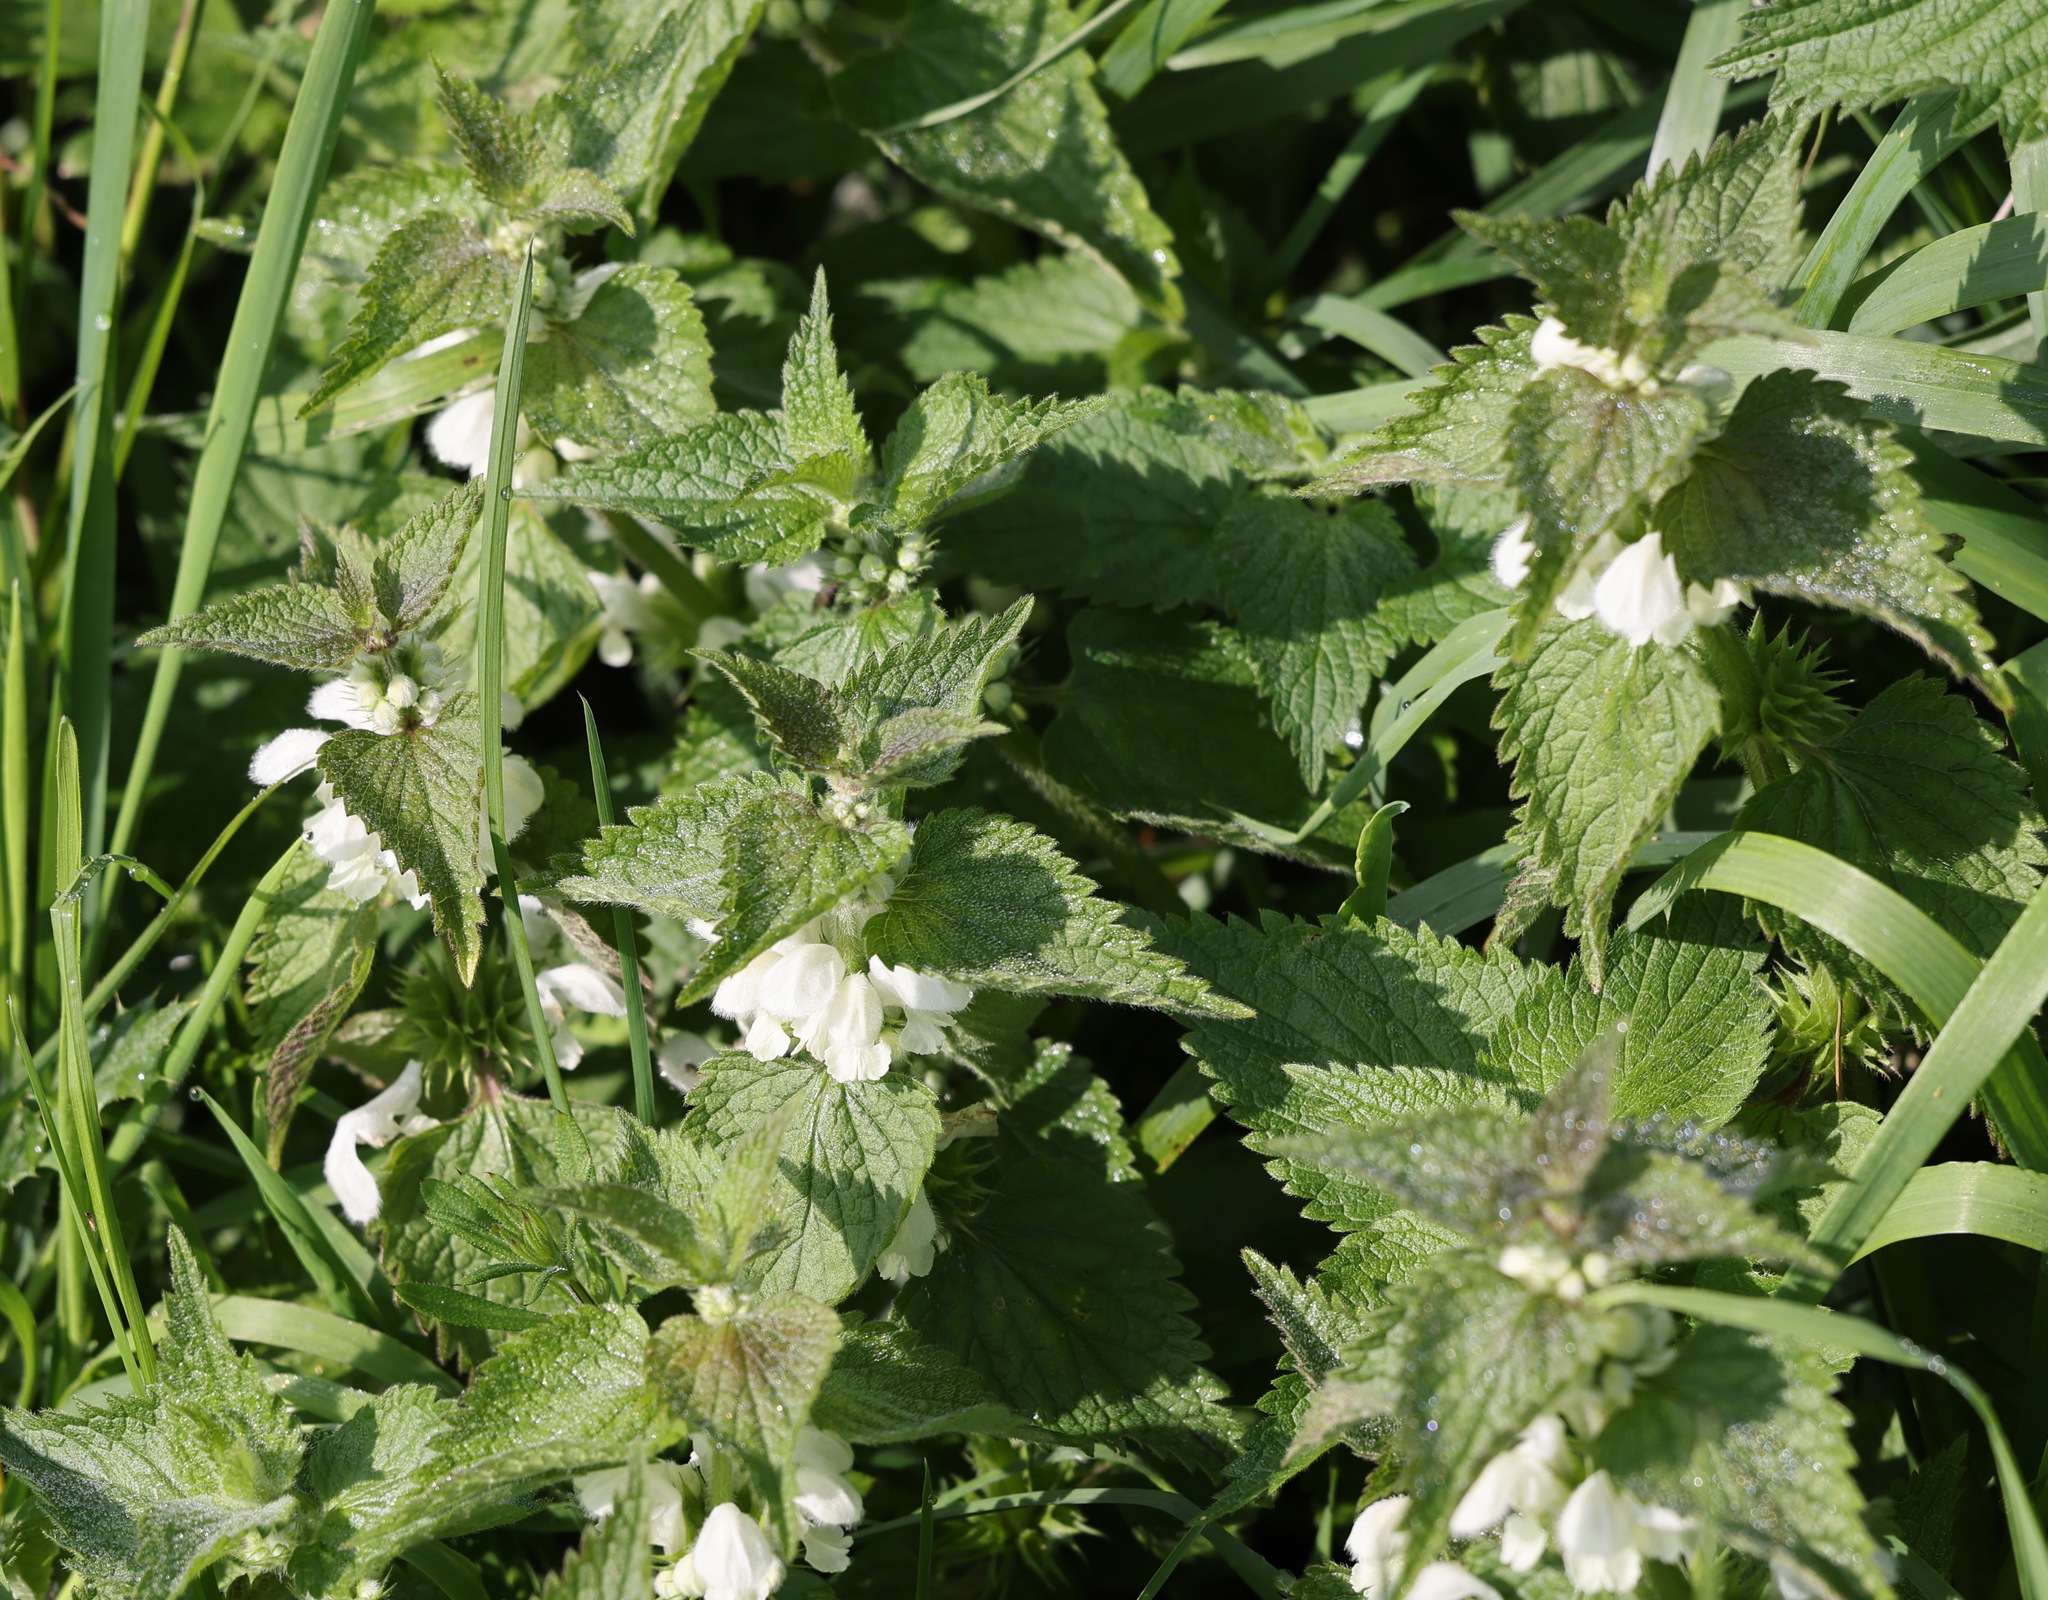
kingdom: Plantae
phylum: Tracheophyta
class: Magnoliopsida
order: Lamiales
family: Lamiaceae
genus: Lamium
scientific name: Lamium album
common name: White dead-nettle
